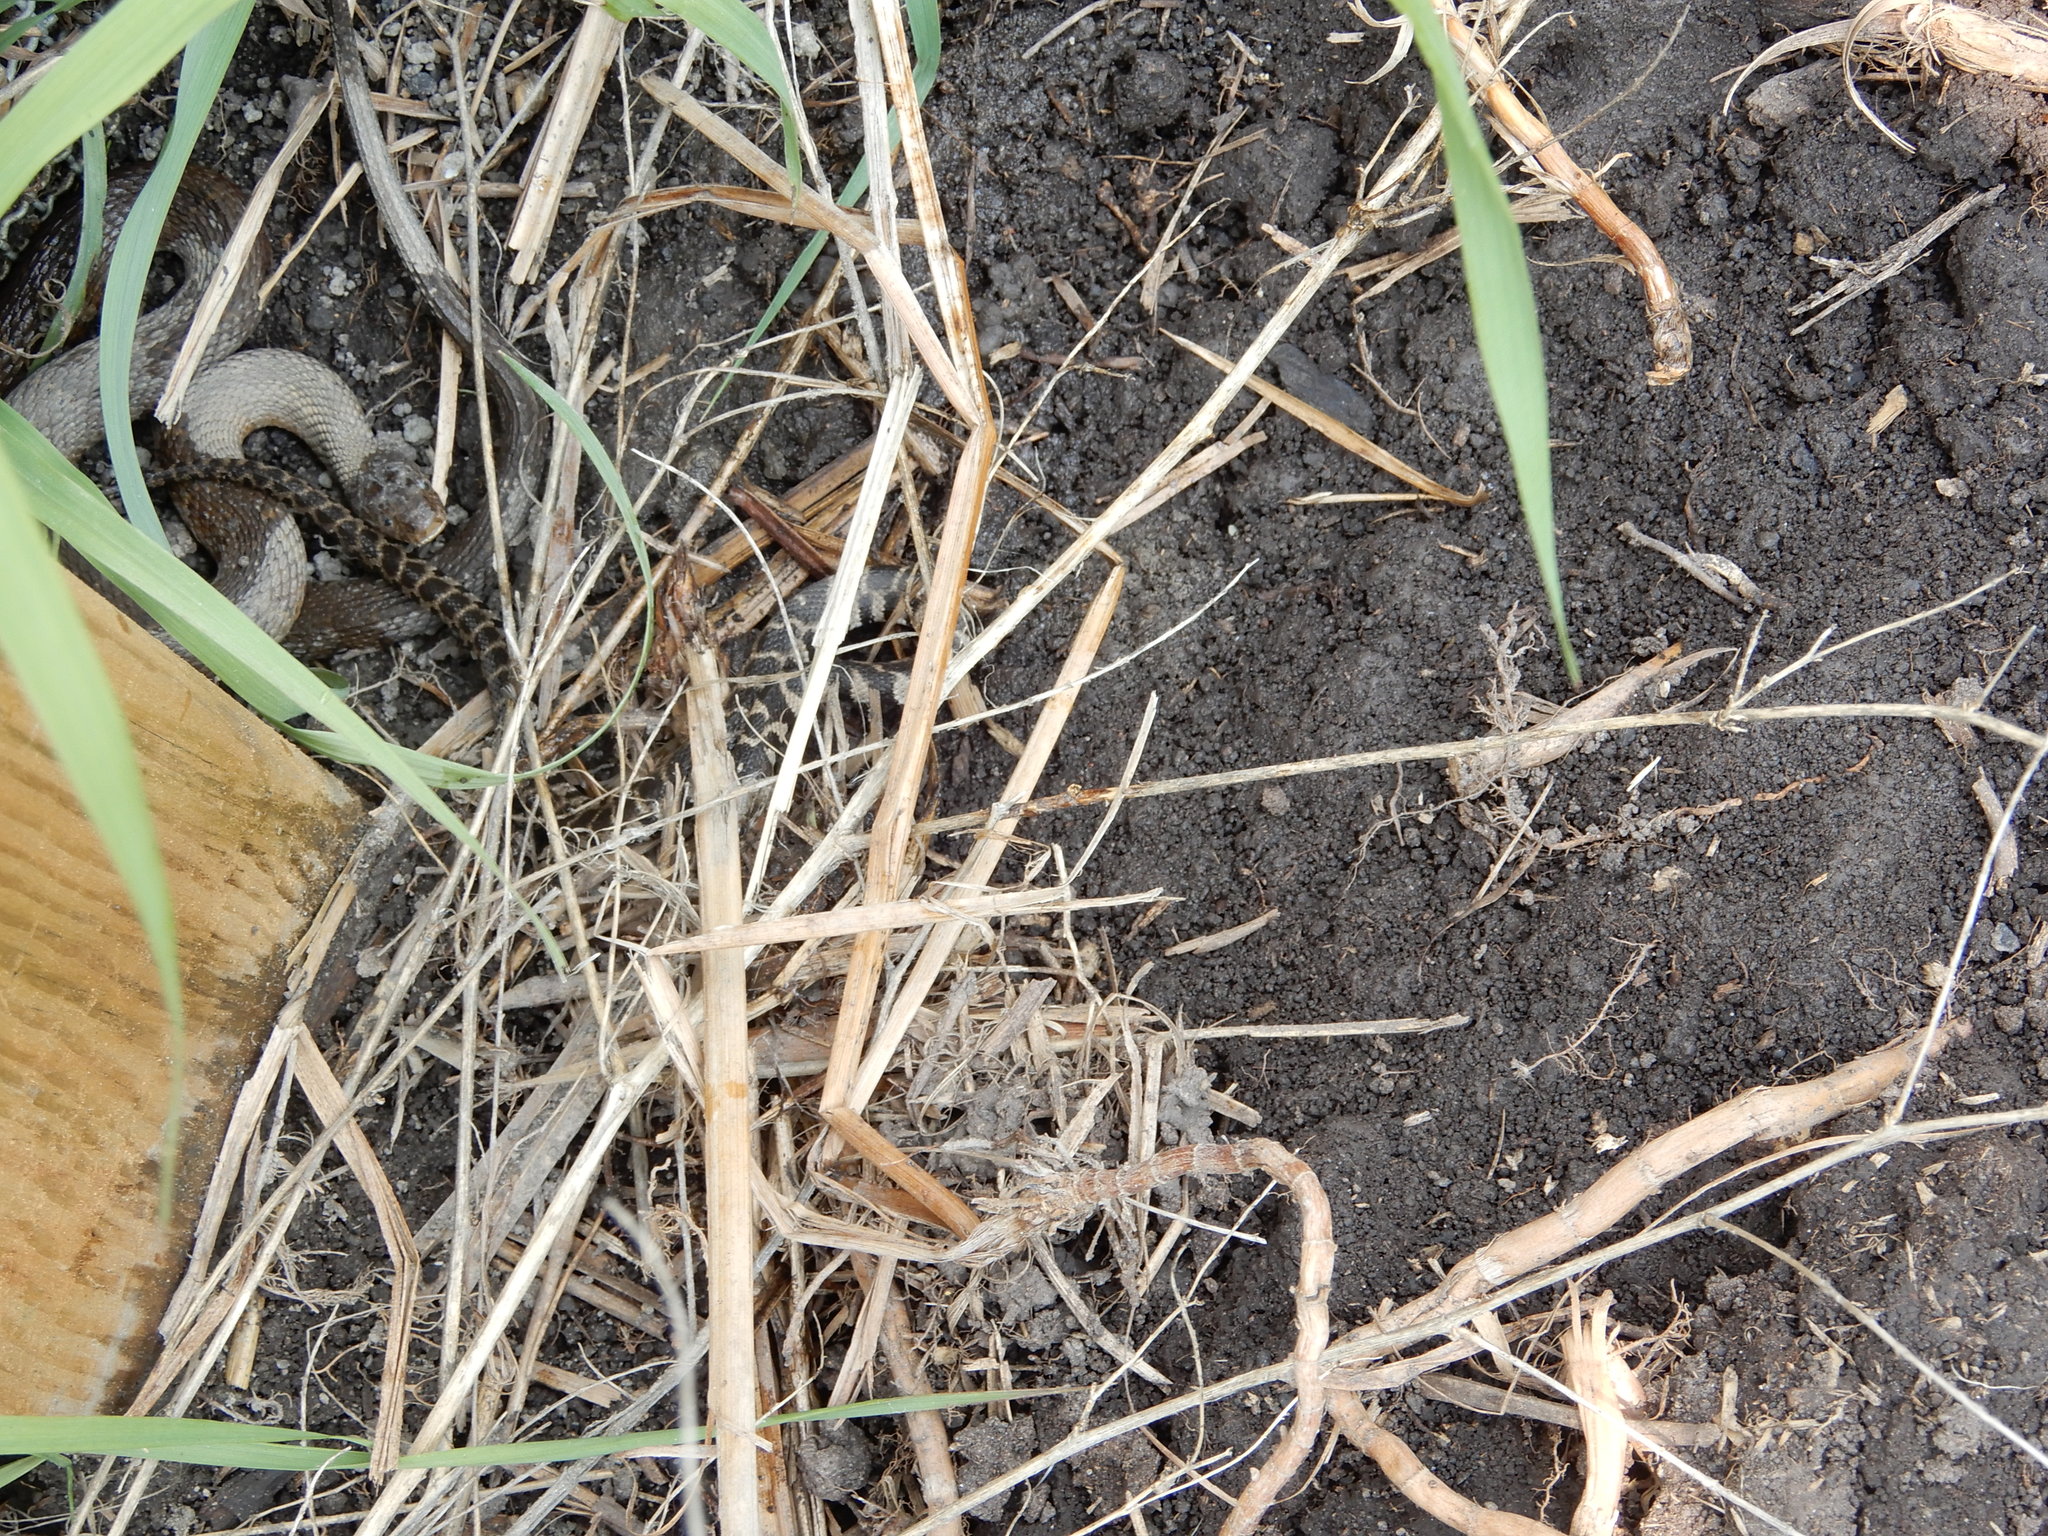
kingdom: Animalia
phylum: Chordata
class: Squamata
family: Colubridae
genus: Nerodia
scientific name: Nerodia sipedon
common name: Northern water snake
